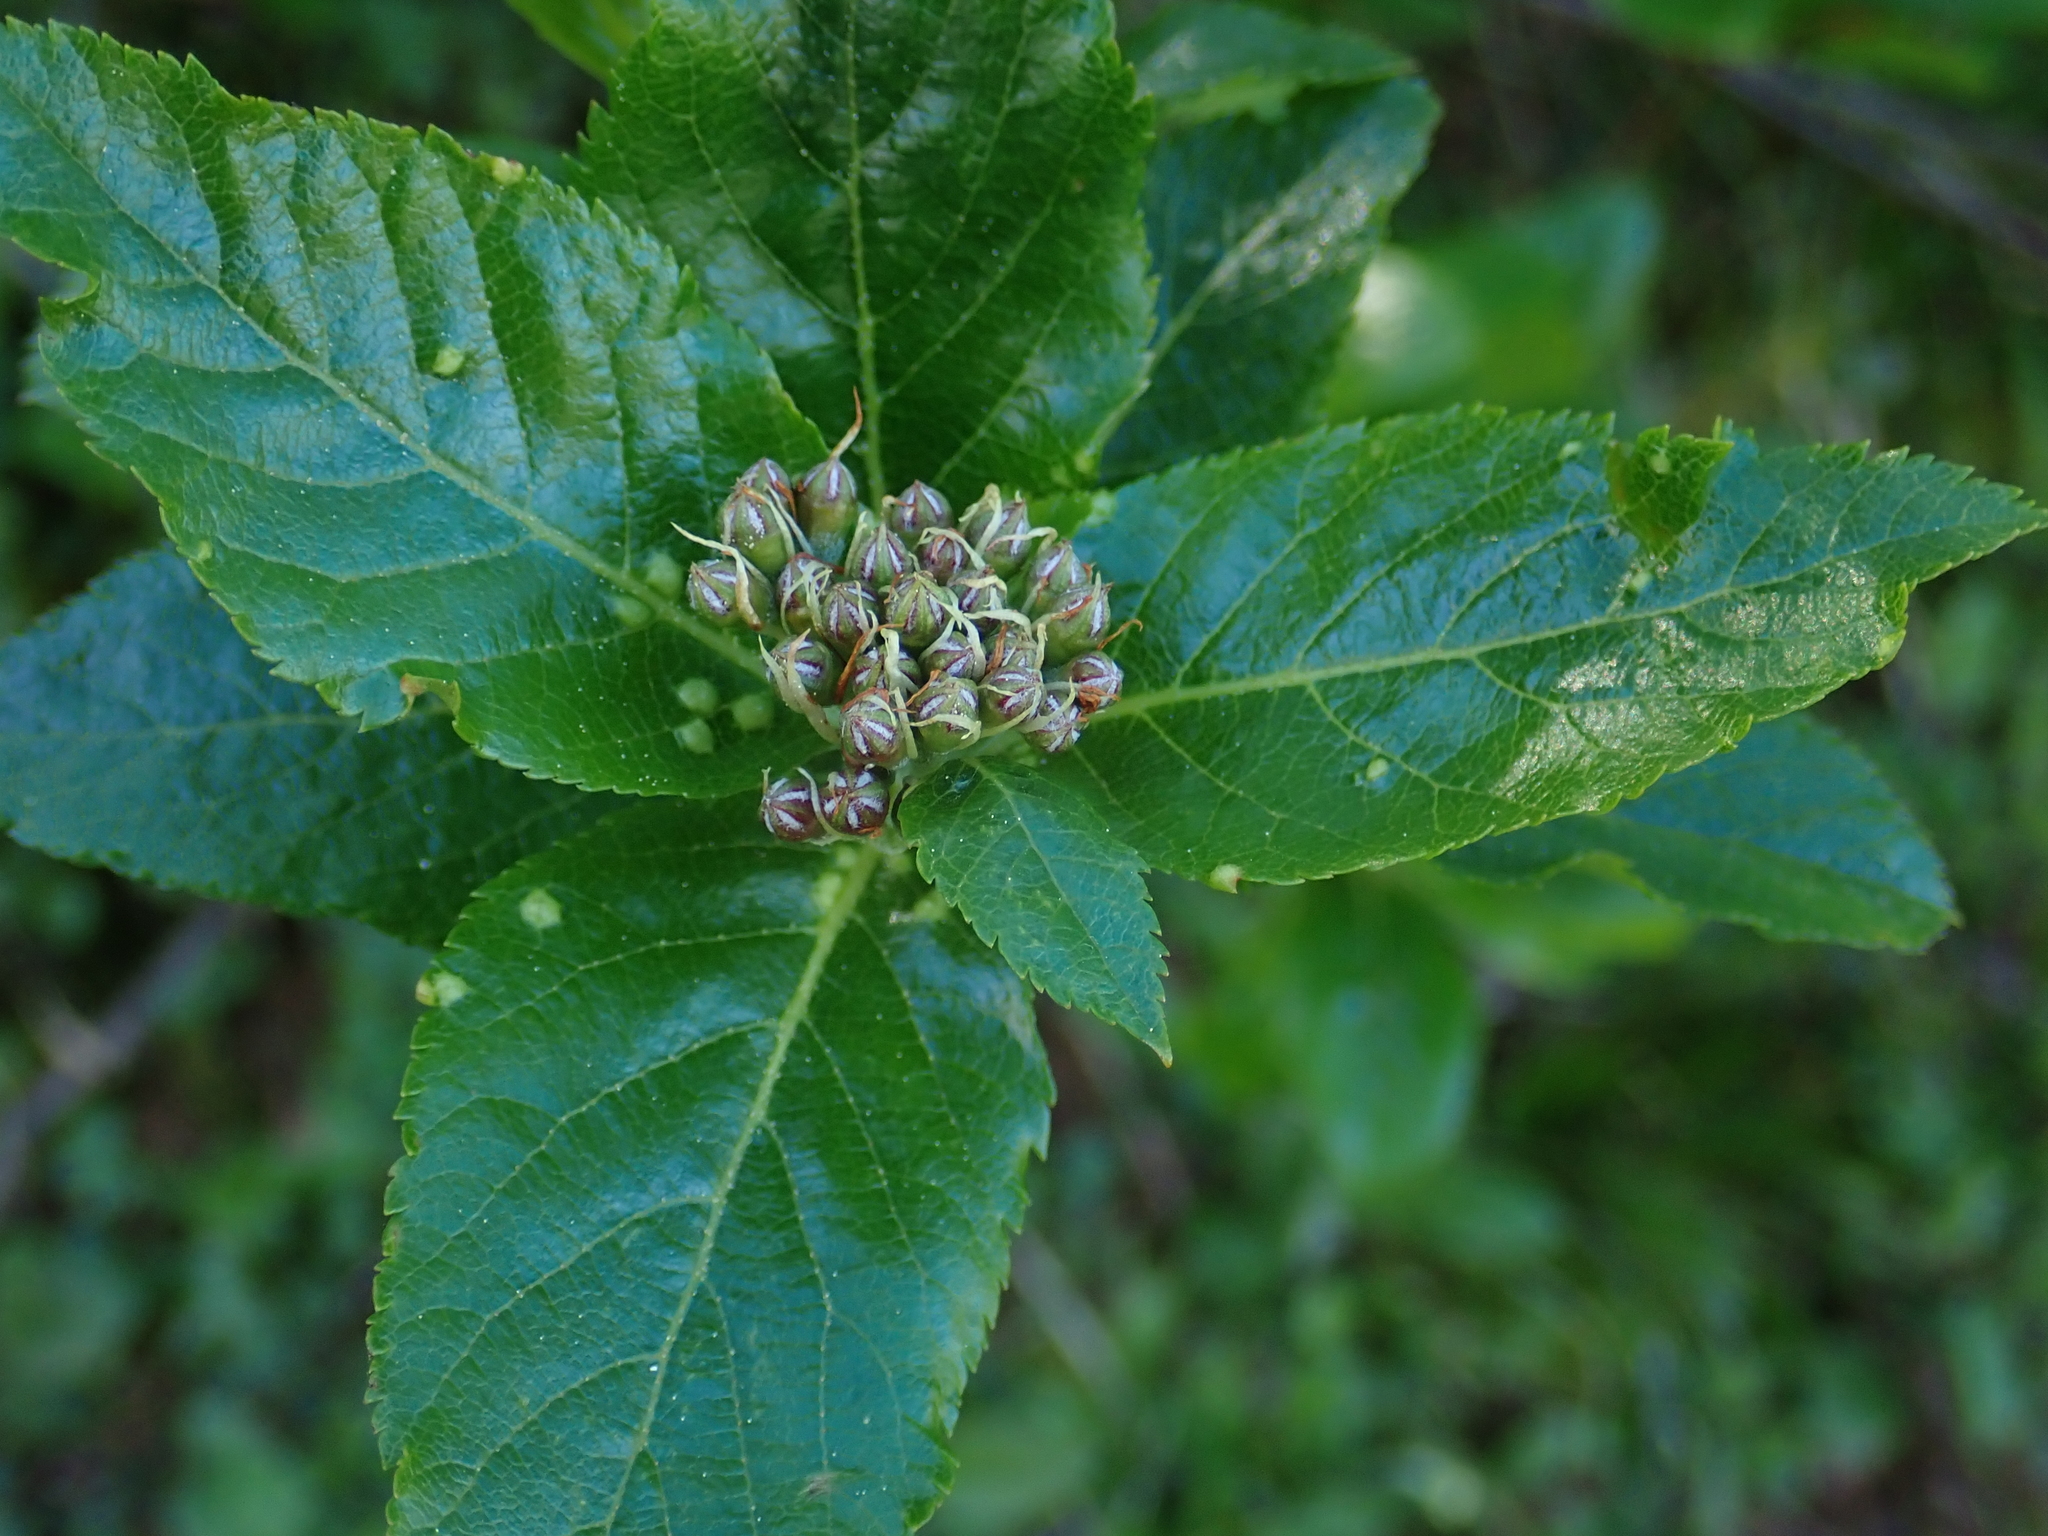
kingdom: Plantae
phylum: Tracheophyta
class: Magnoliopsida
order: Rosales
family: Rosaceae
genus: Chamaemespilus
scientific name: Chamaemespilus alpina
